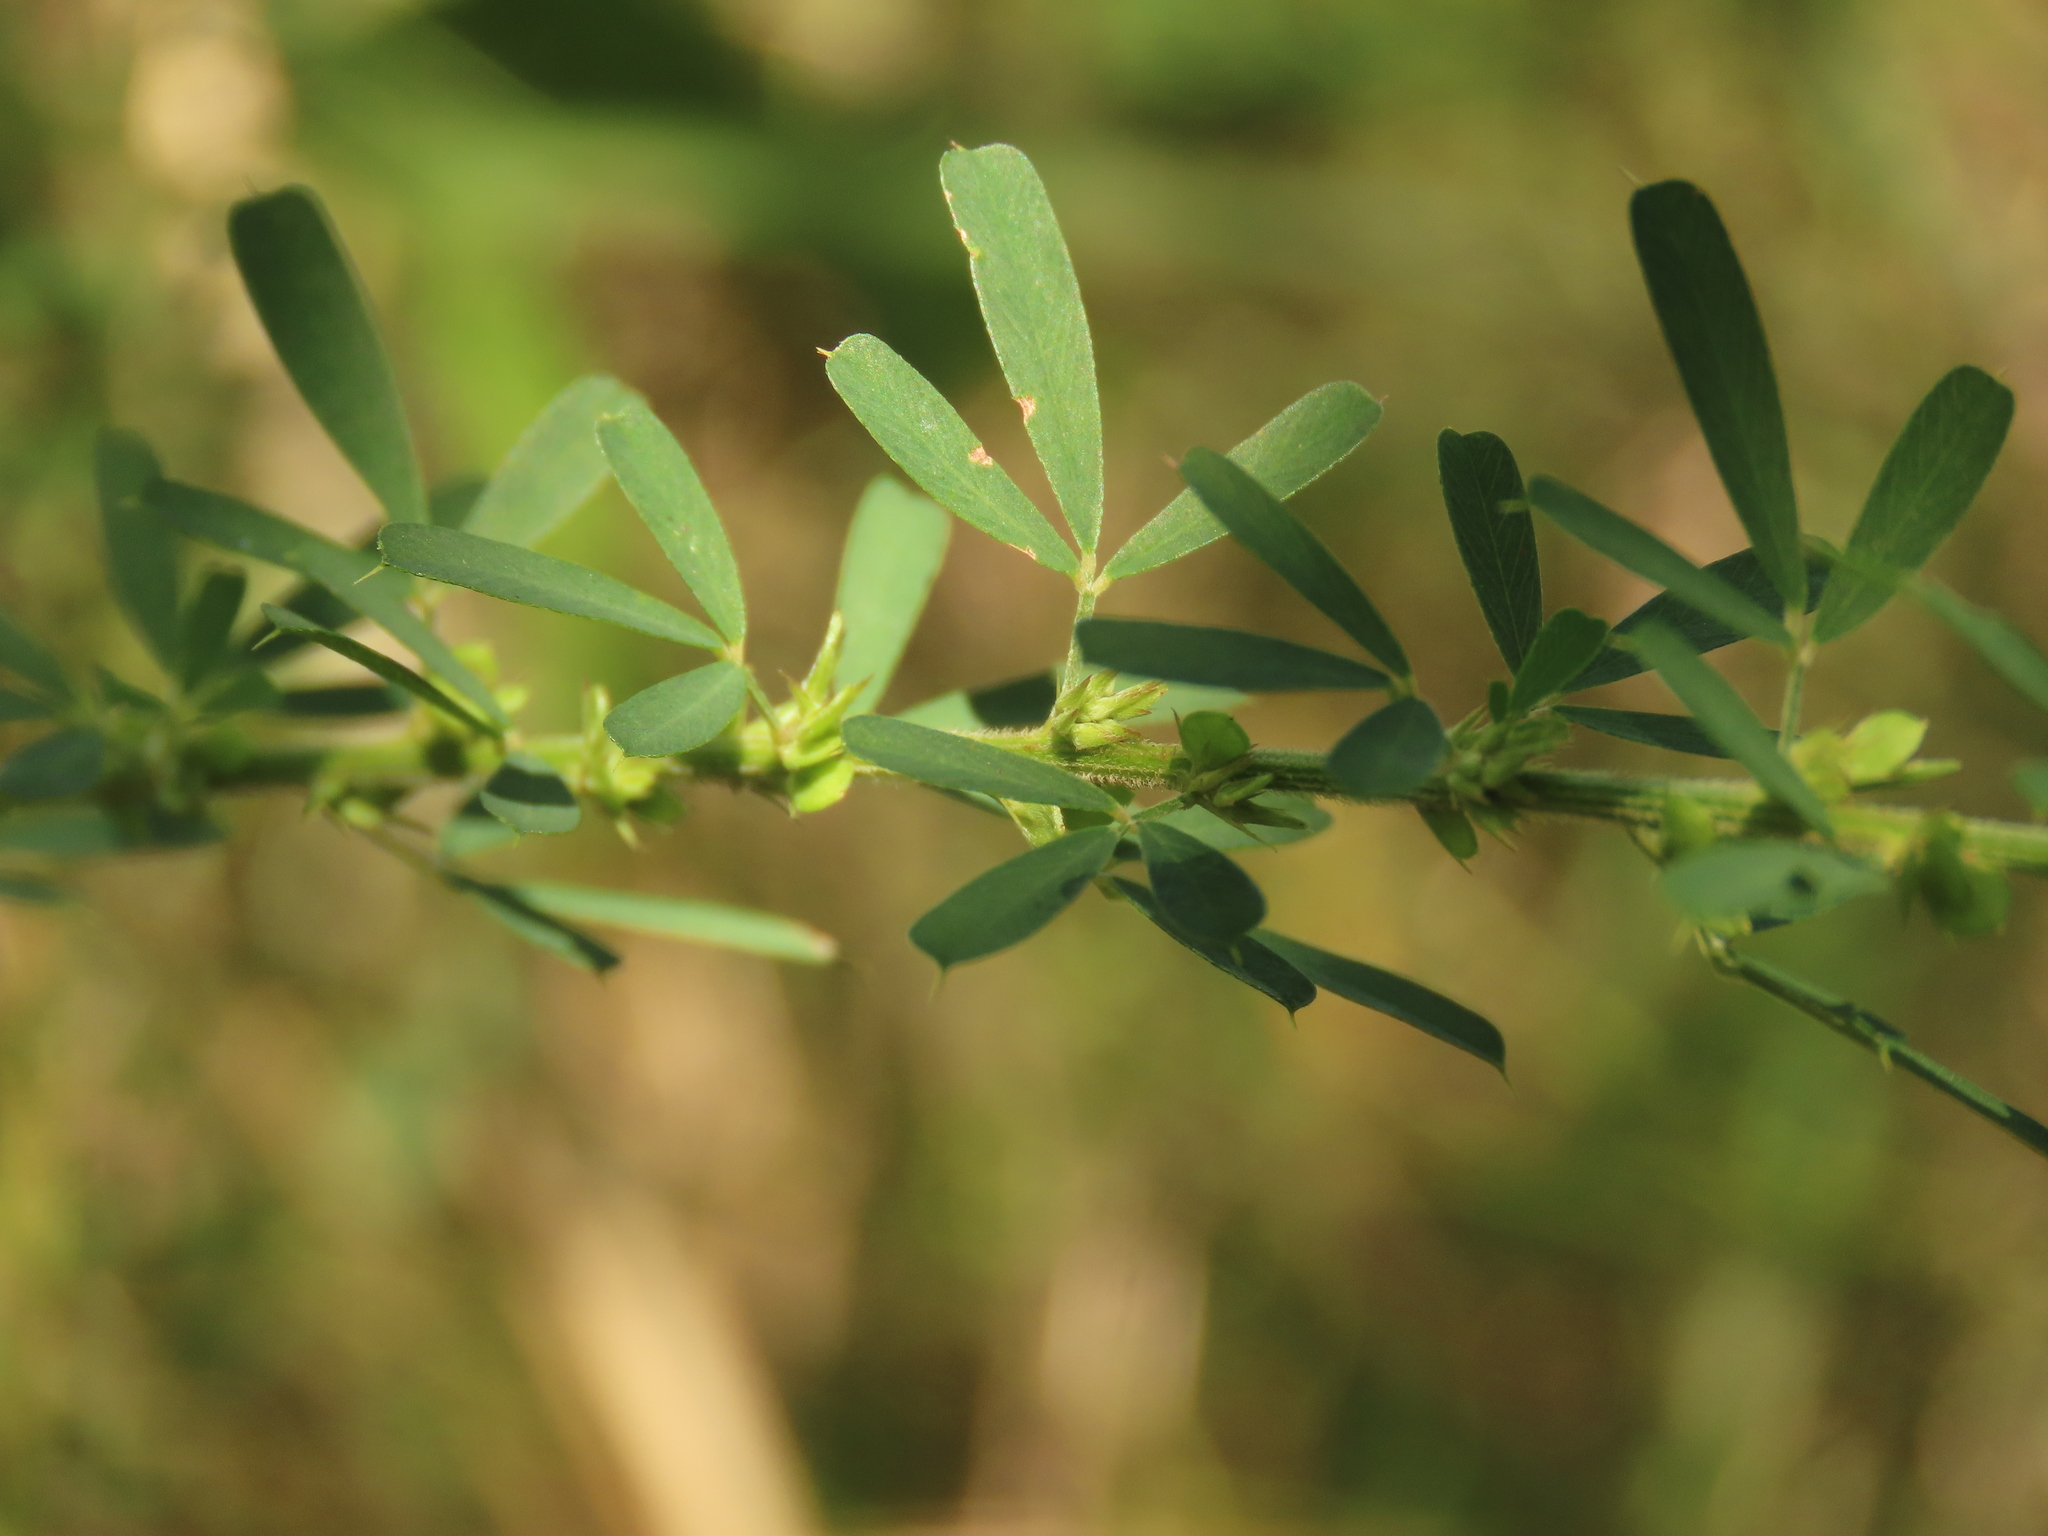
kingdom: Plantae
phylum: Tracheophyta
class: Magnoliopsida
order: Fabales
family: Fabaceae
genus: Lespedeza
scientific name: Lespedeza cuneata
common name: Chinese bush-clover
